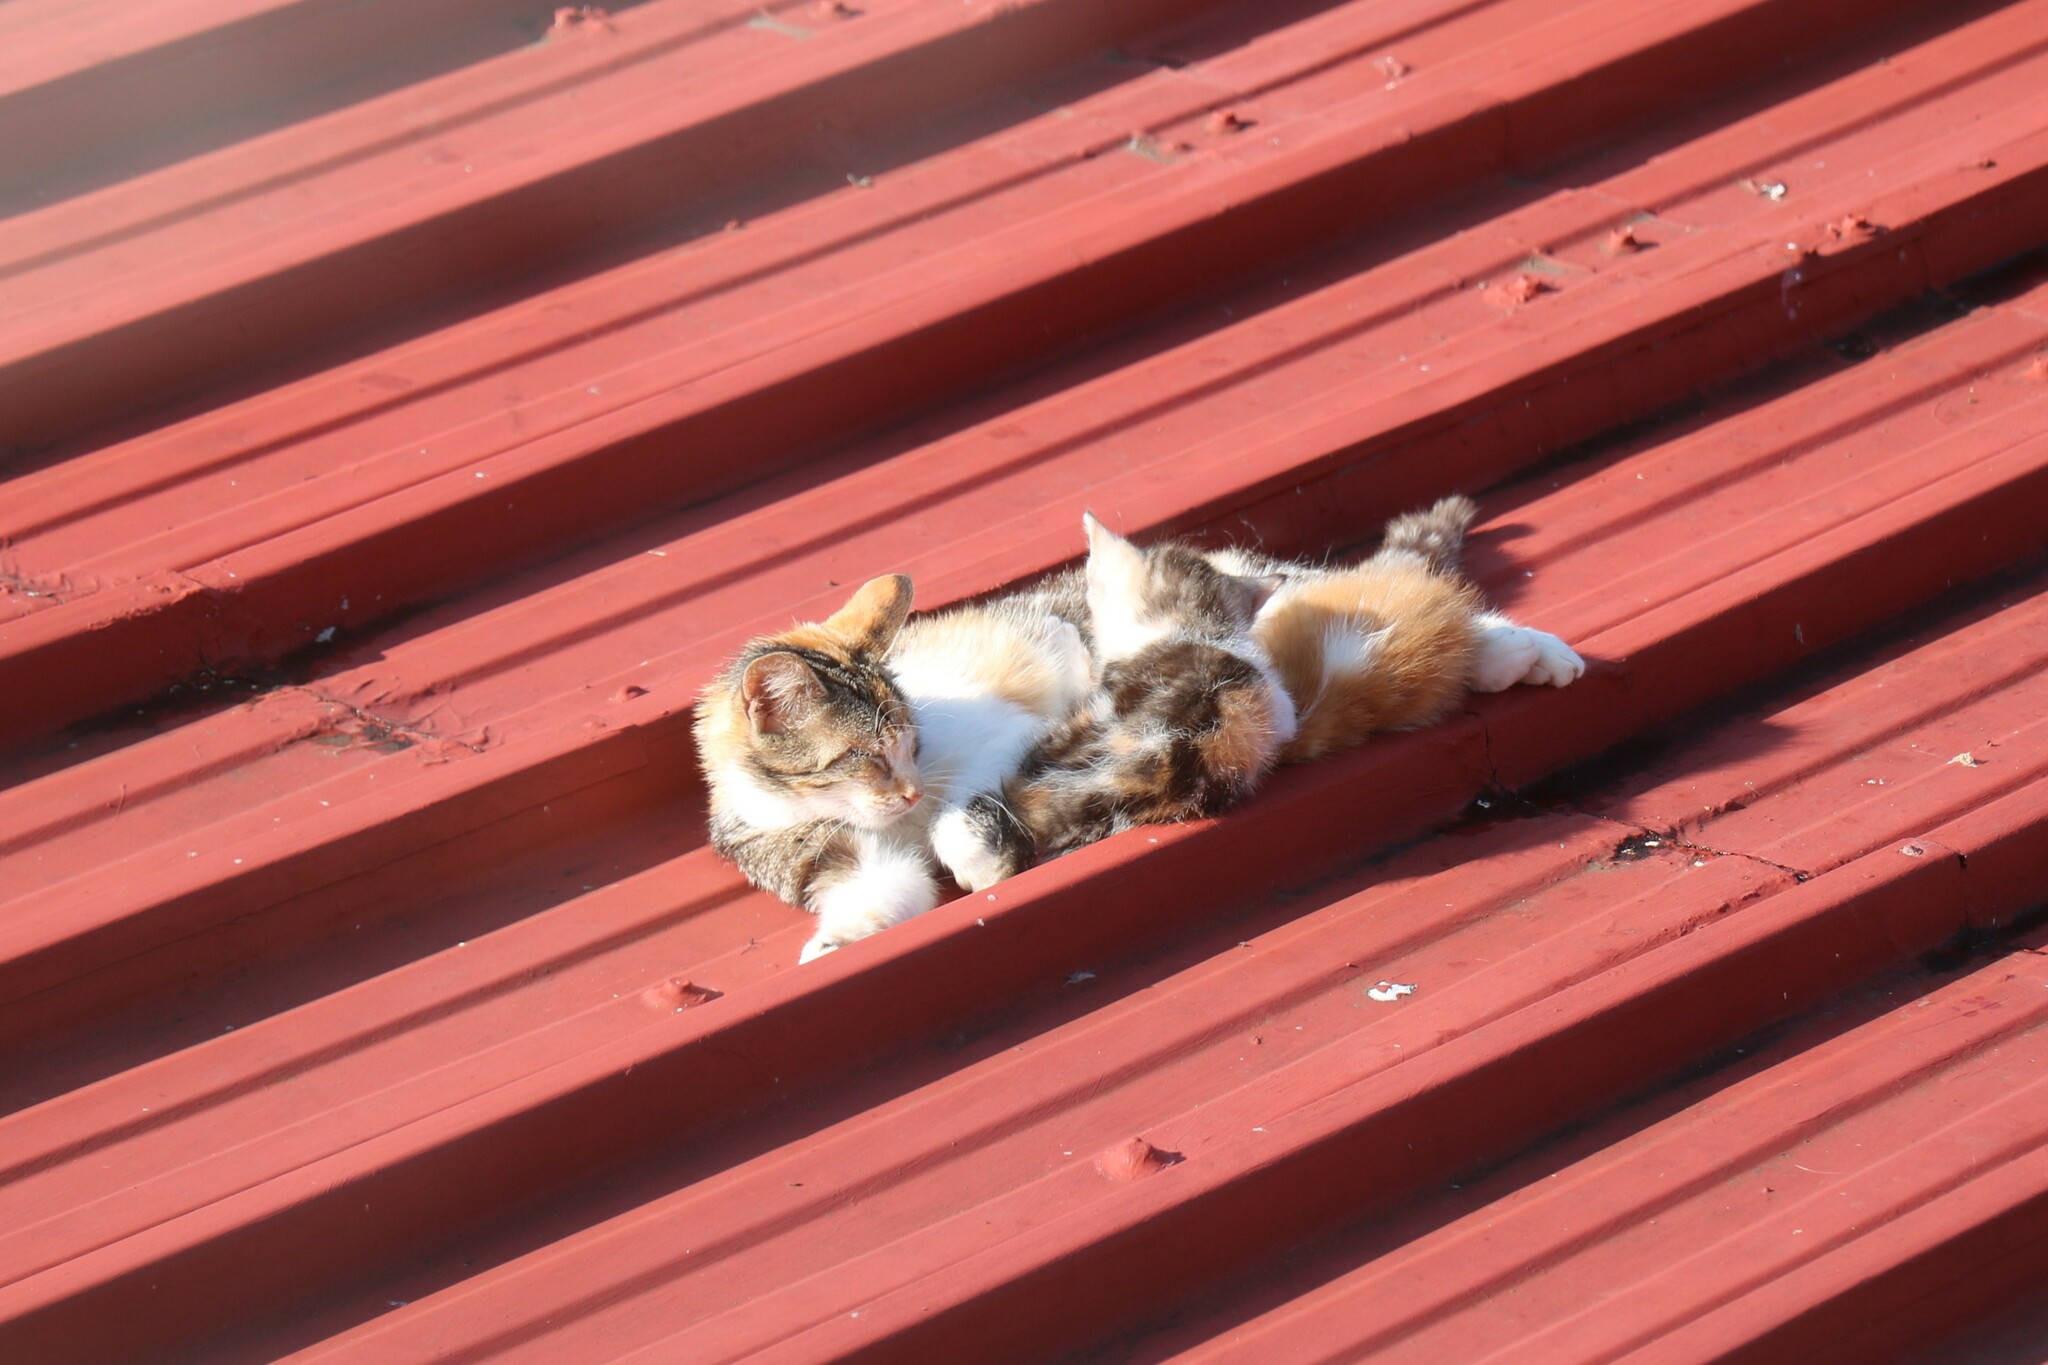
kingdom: Animalia
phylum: Chordata
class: Mammalia
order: Carnivora
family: Felidae
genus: Felis
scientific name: Felis catus
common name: Domestic cat
